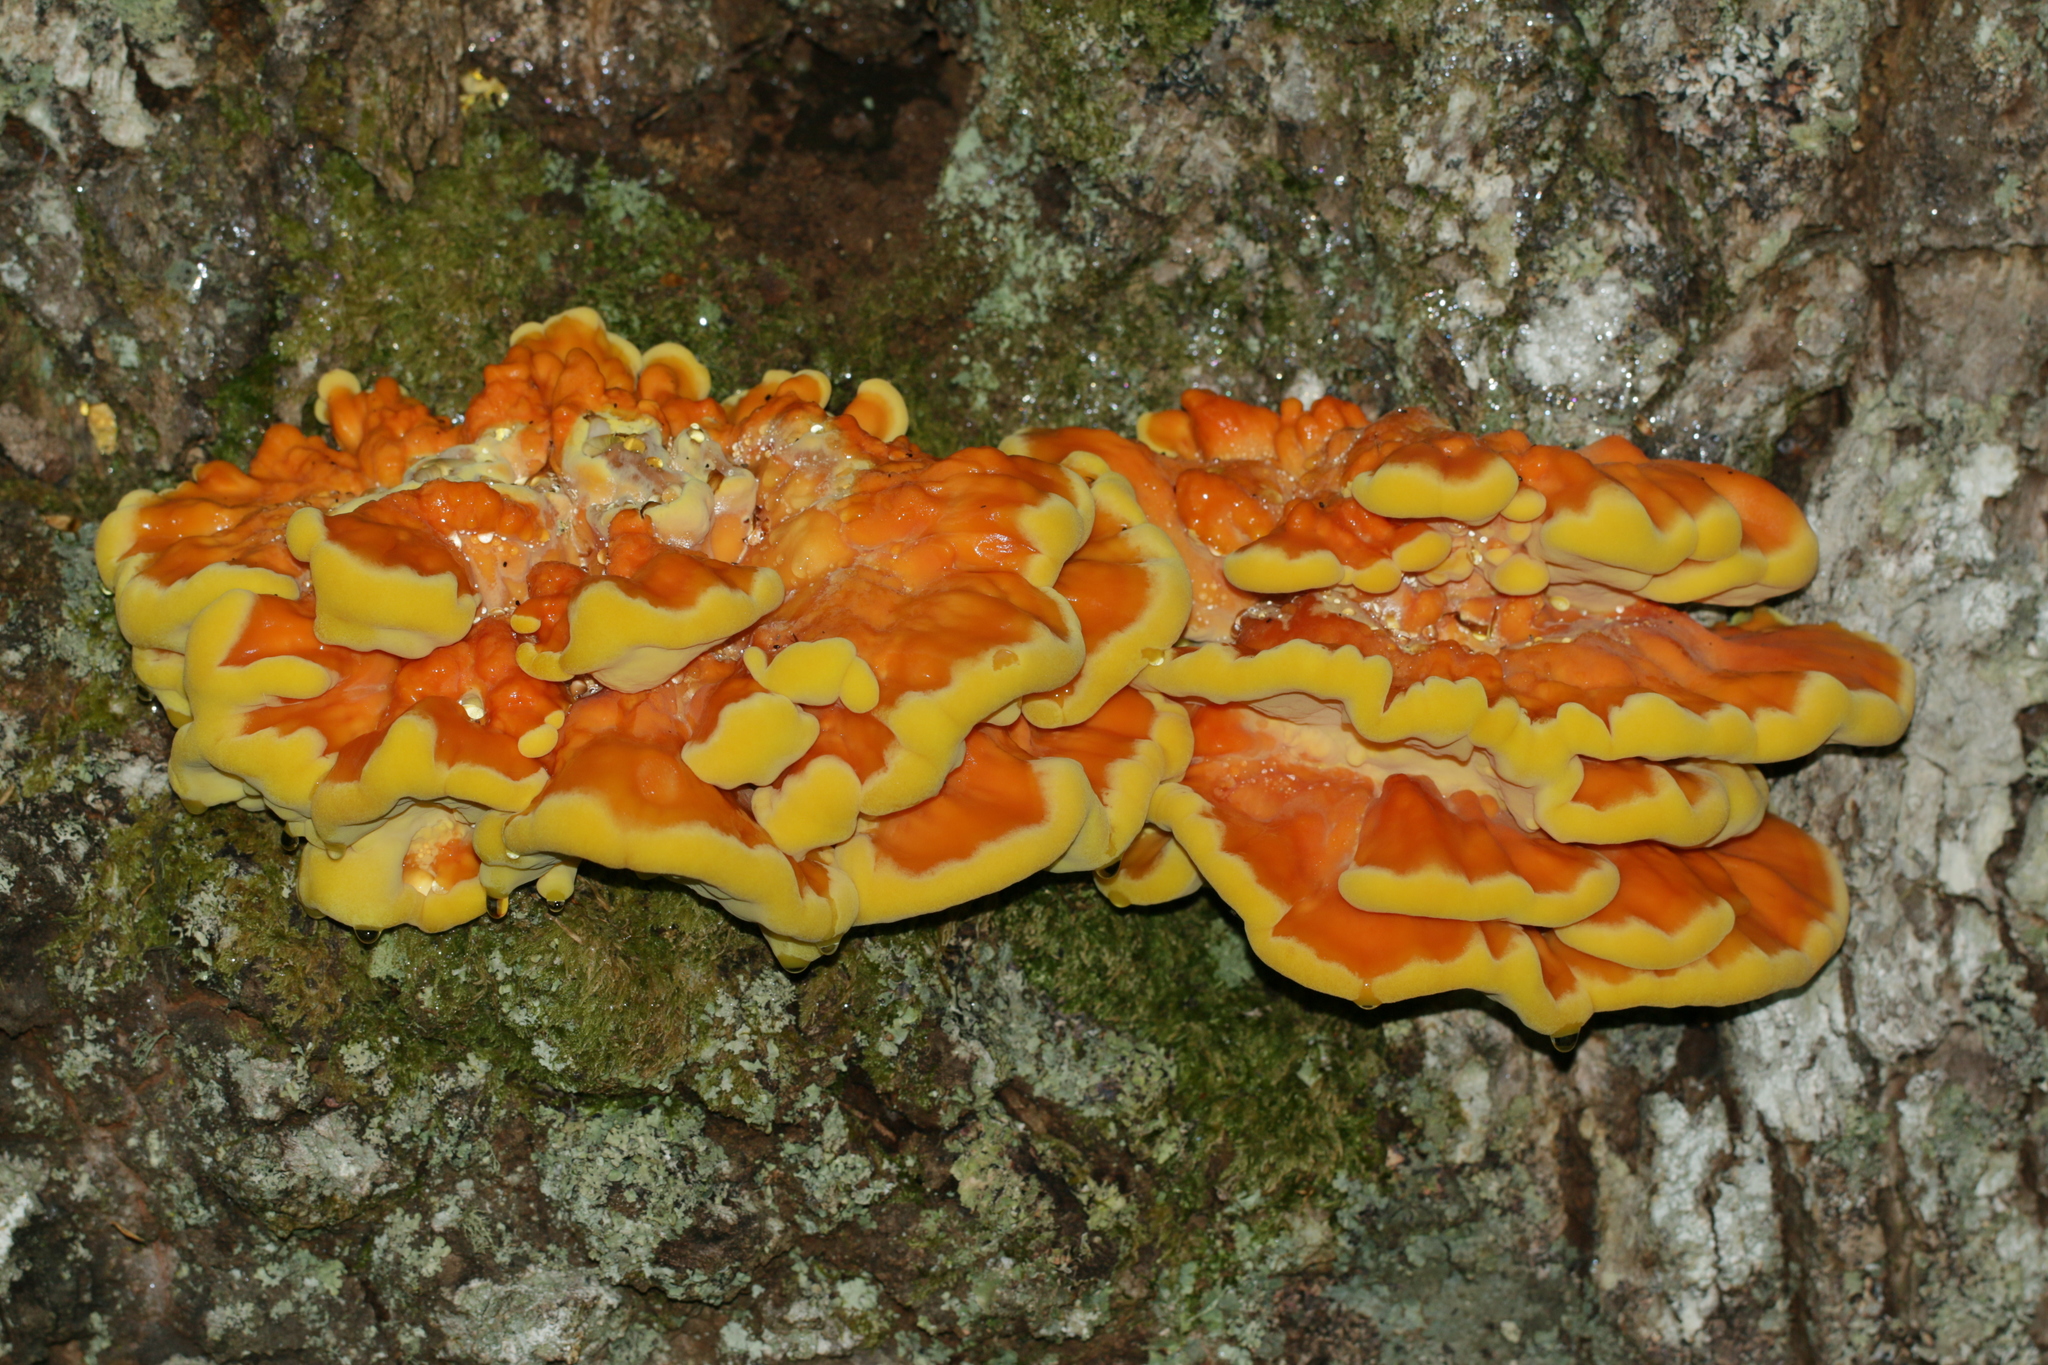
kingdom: Fungi
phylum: Basidiomycota
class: Agaricomycetes
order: Polyporales
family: Laetiporaceae
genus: Laetiporus
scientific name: Laetiporus sulphureus
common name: Chicken of the woods
